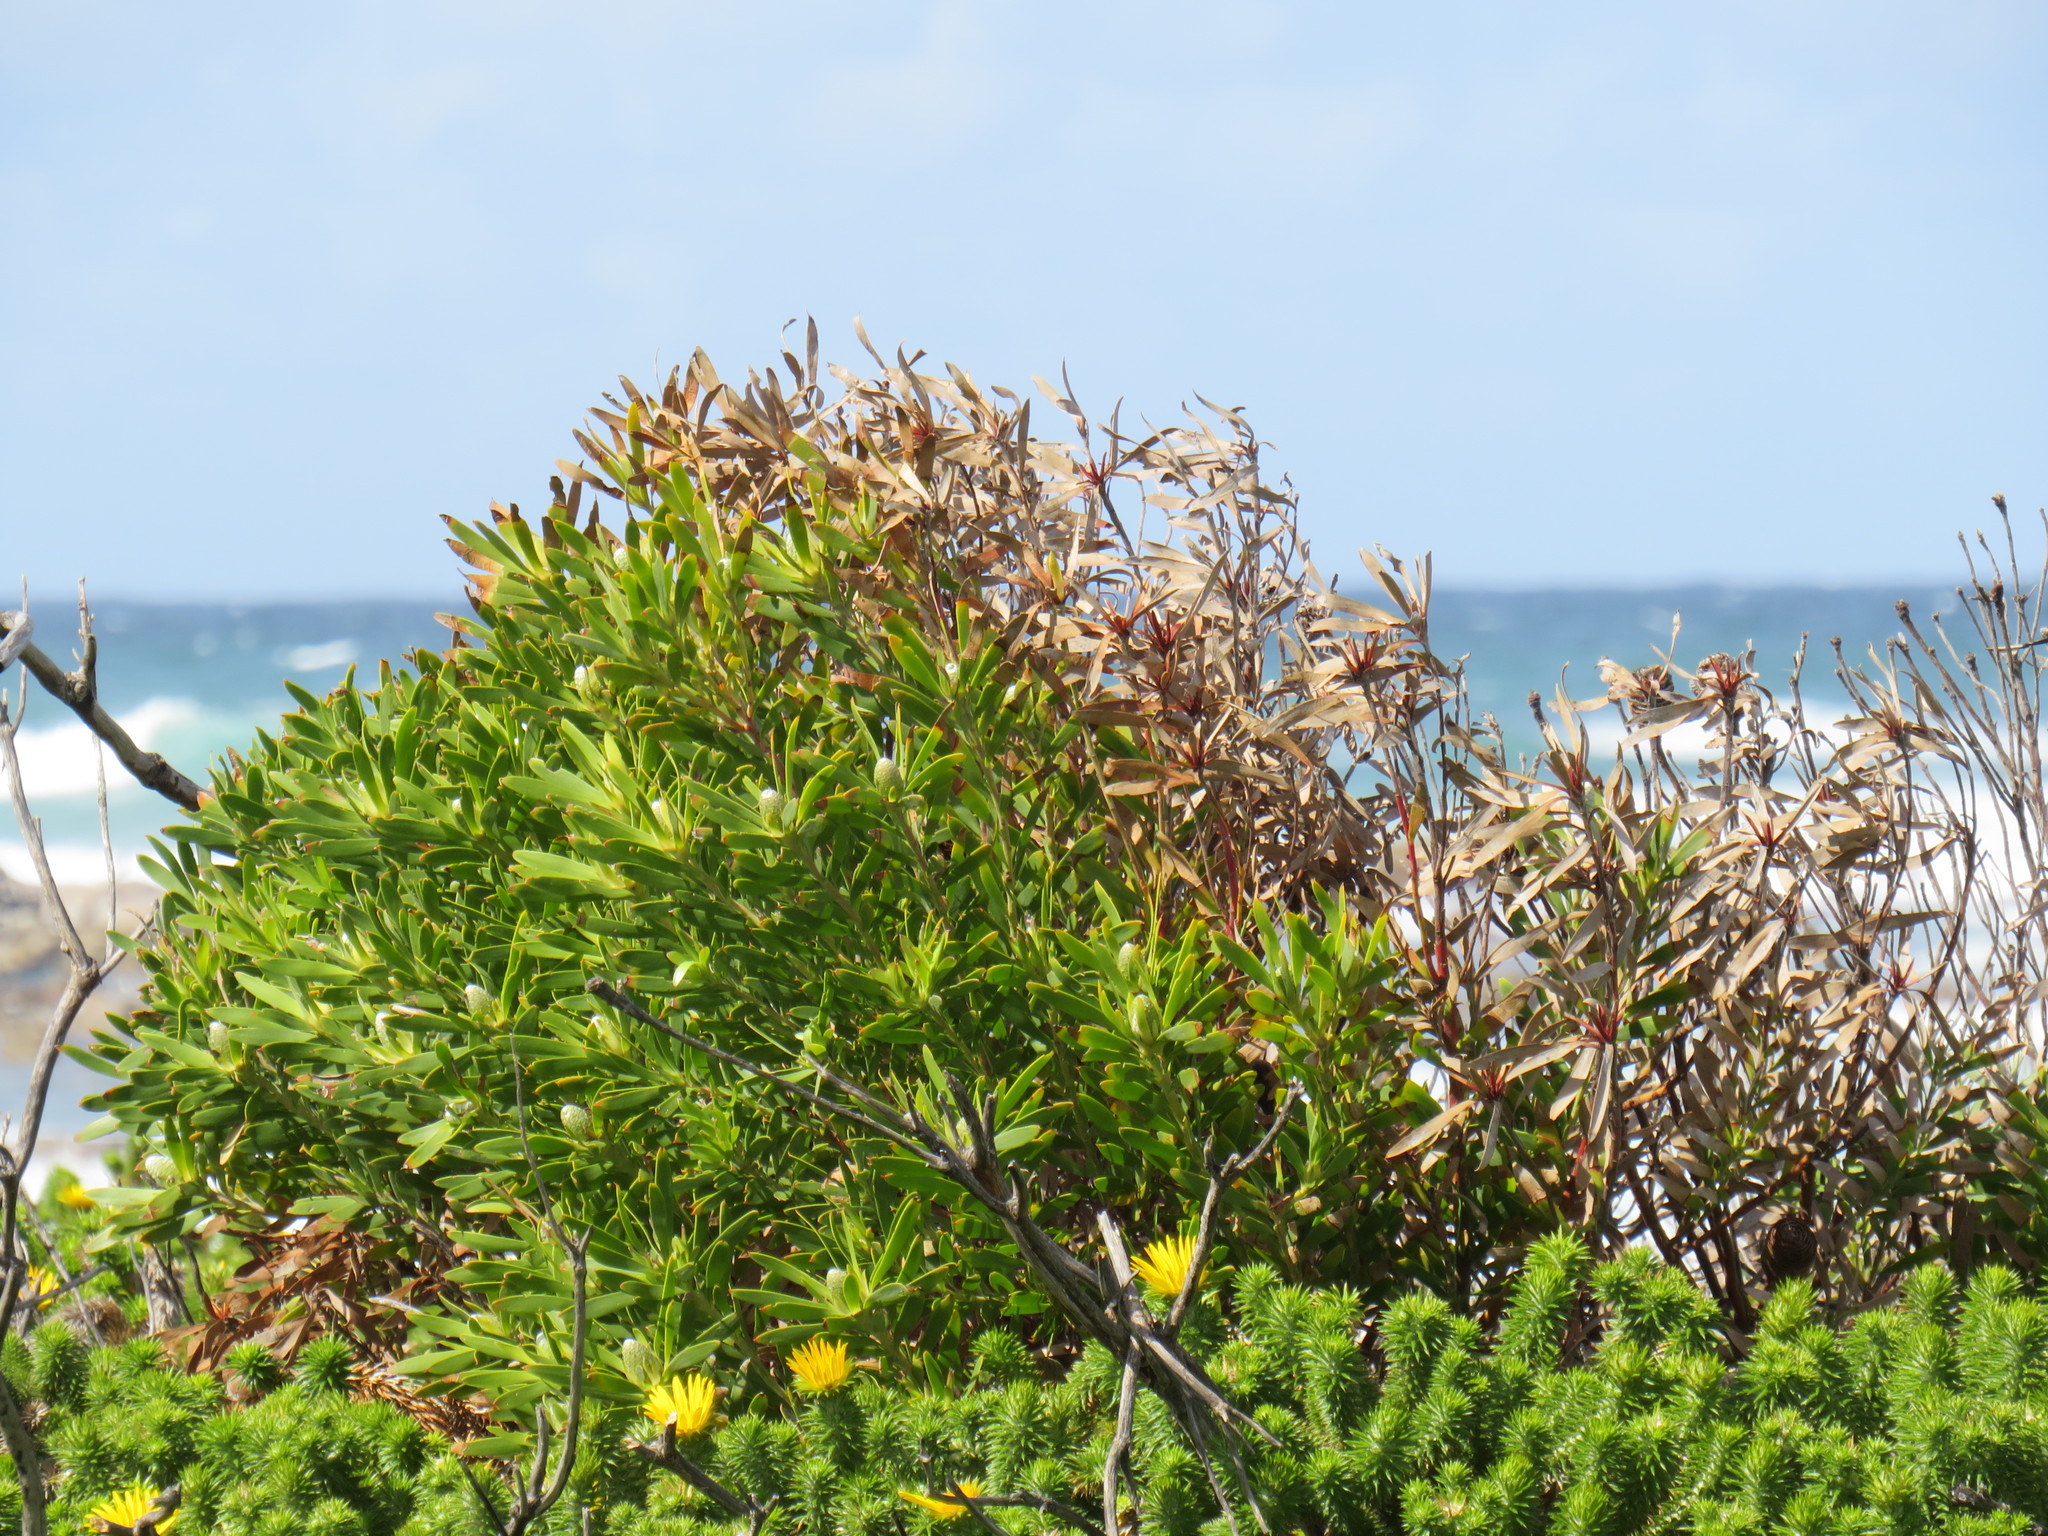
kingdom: Plantae
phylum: Tracheophyta
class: Magnoliopsida
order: Proteales
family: Proteaceae
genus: Leucadendron
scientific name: Leucadendron coniferum
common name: Dune conebush
